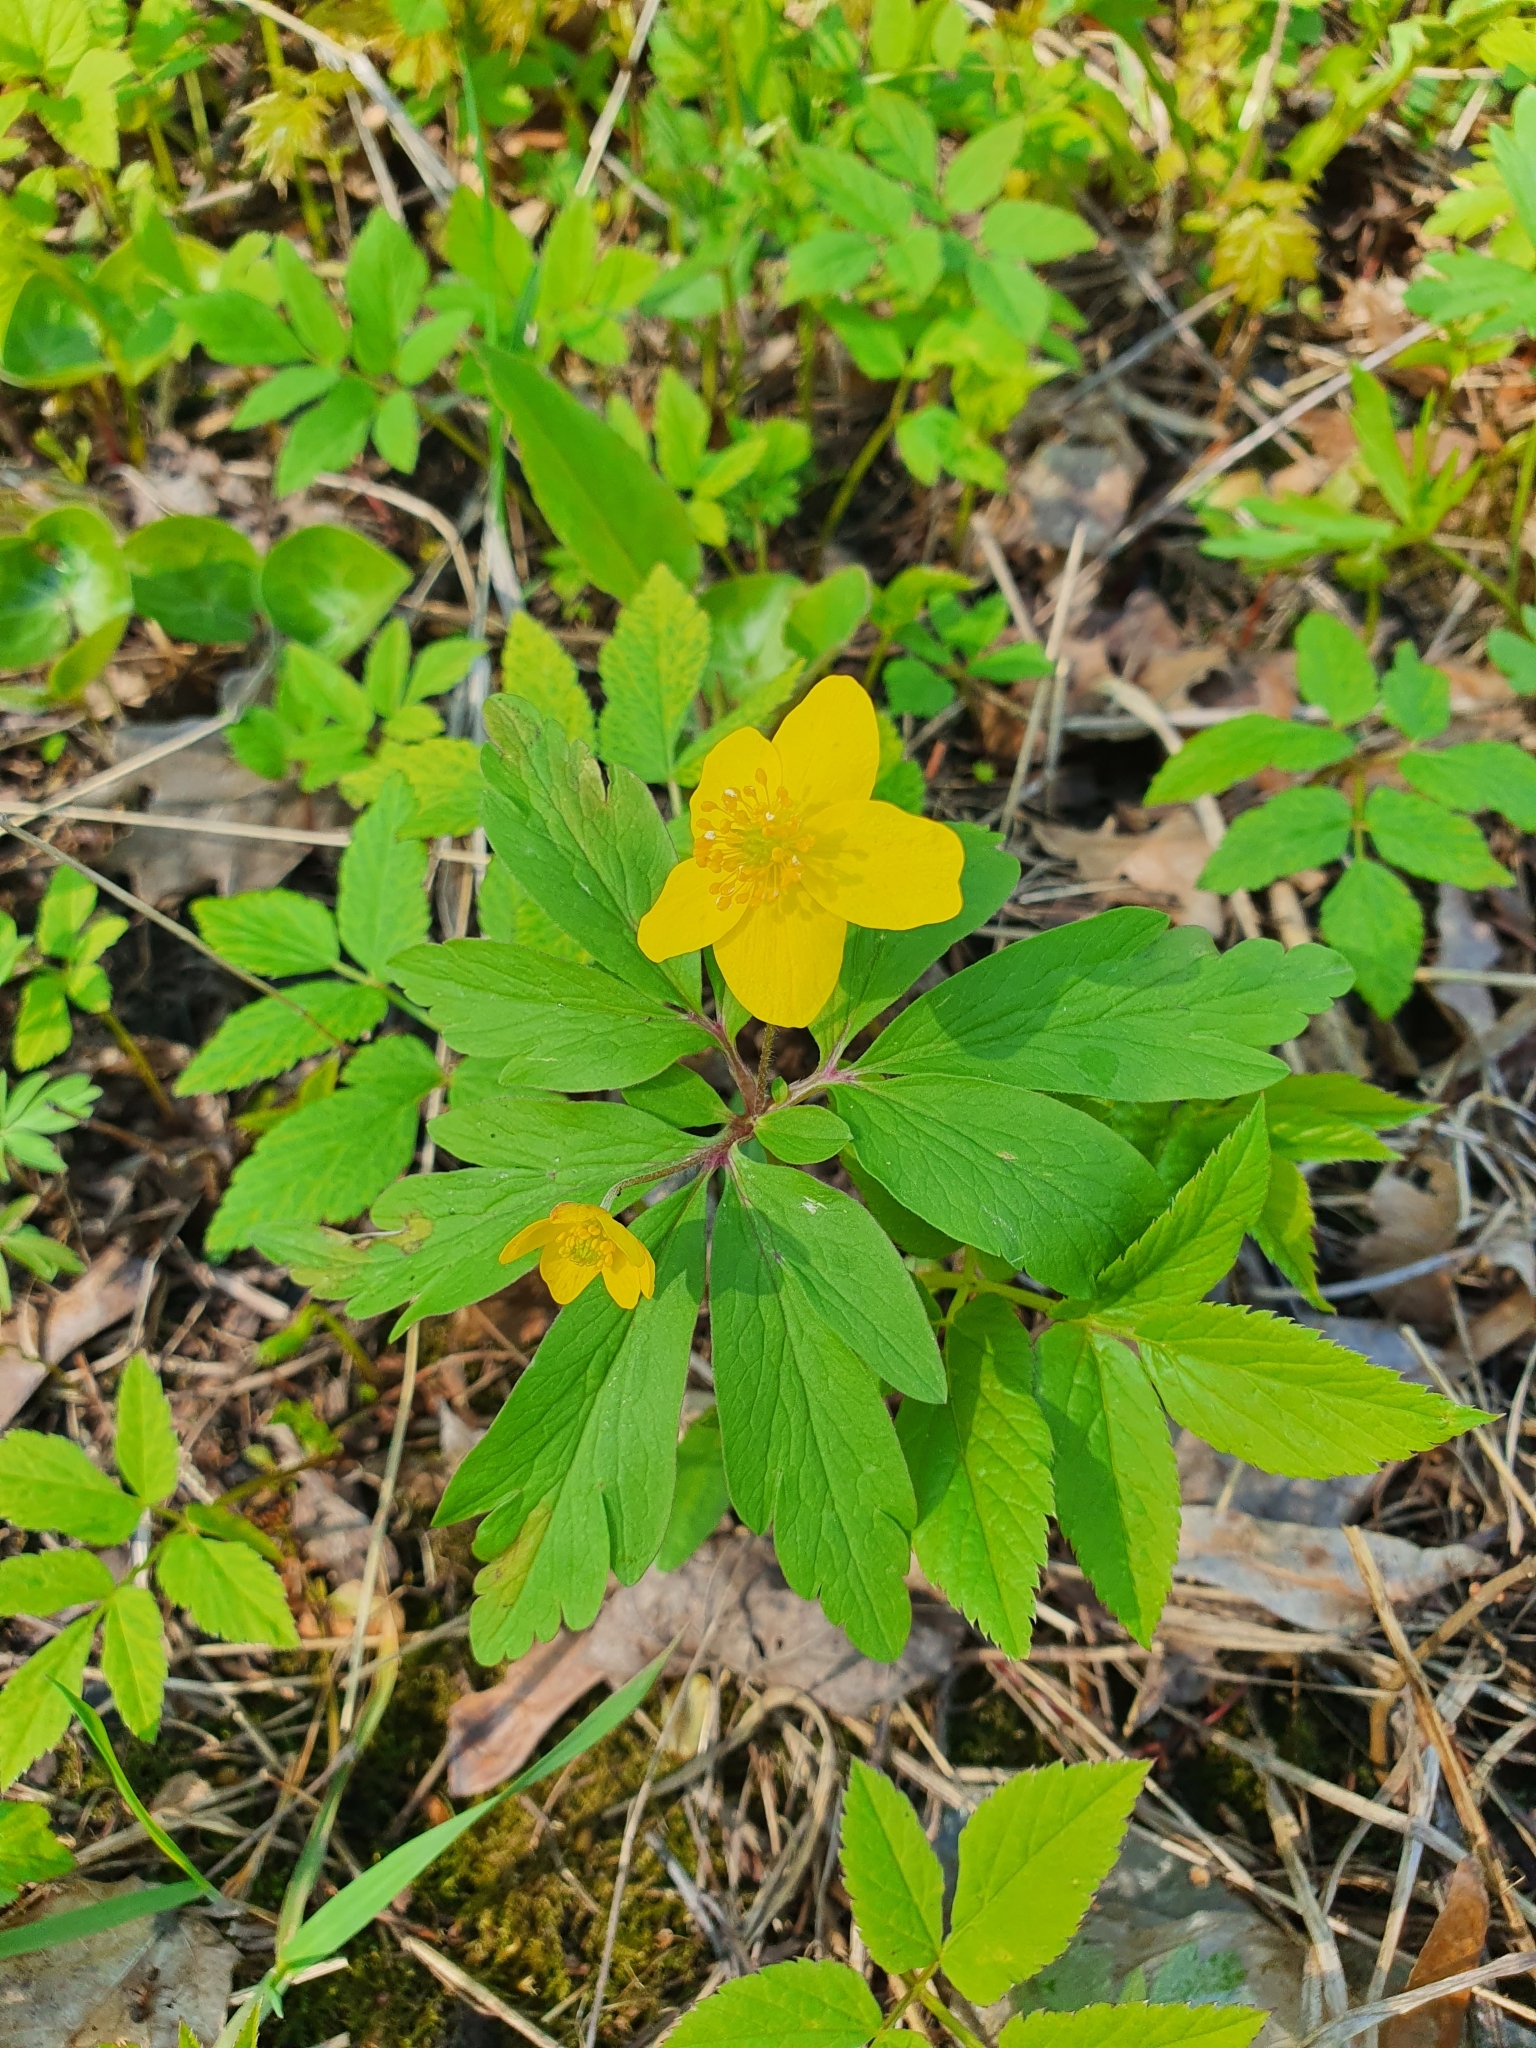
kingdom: Plantae
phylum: Tracheophyta
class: Magnoliopsida
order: Ranunculales
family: Ranunculaceae
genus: Anemone
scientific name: Anemone ranunculoides
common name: Yellow anemone
